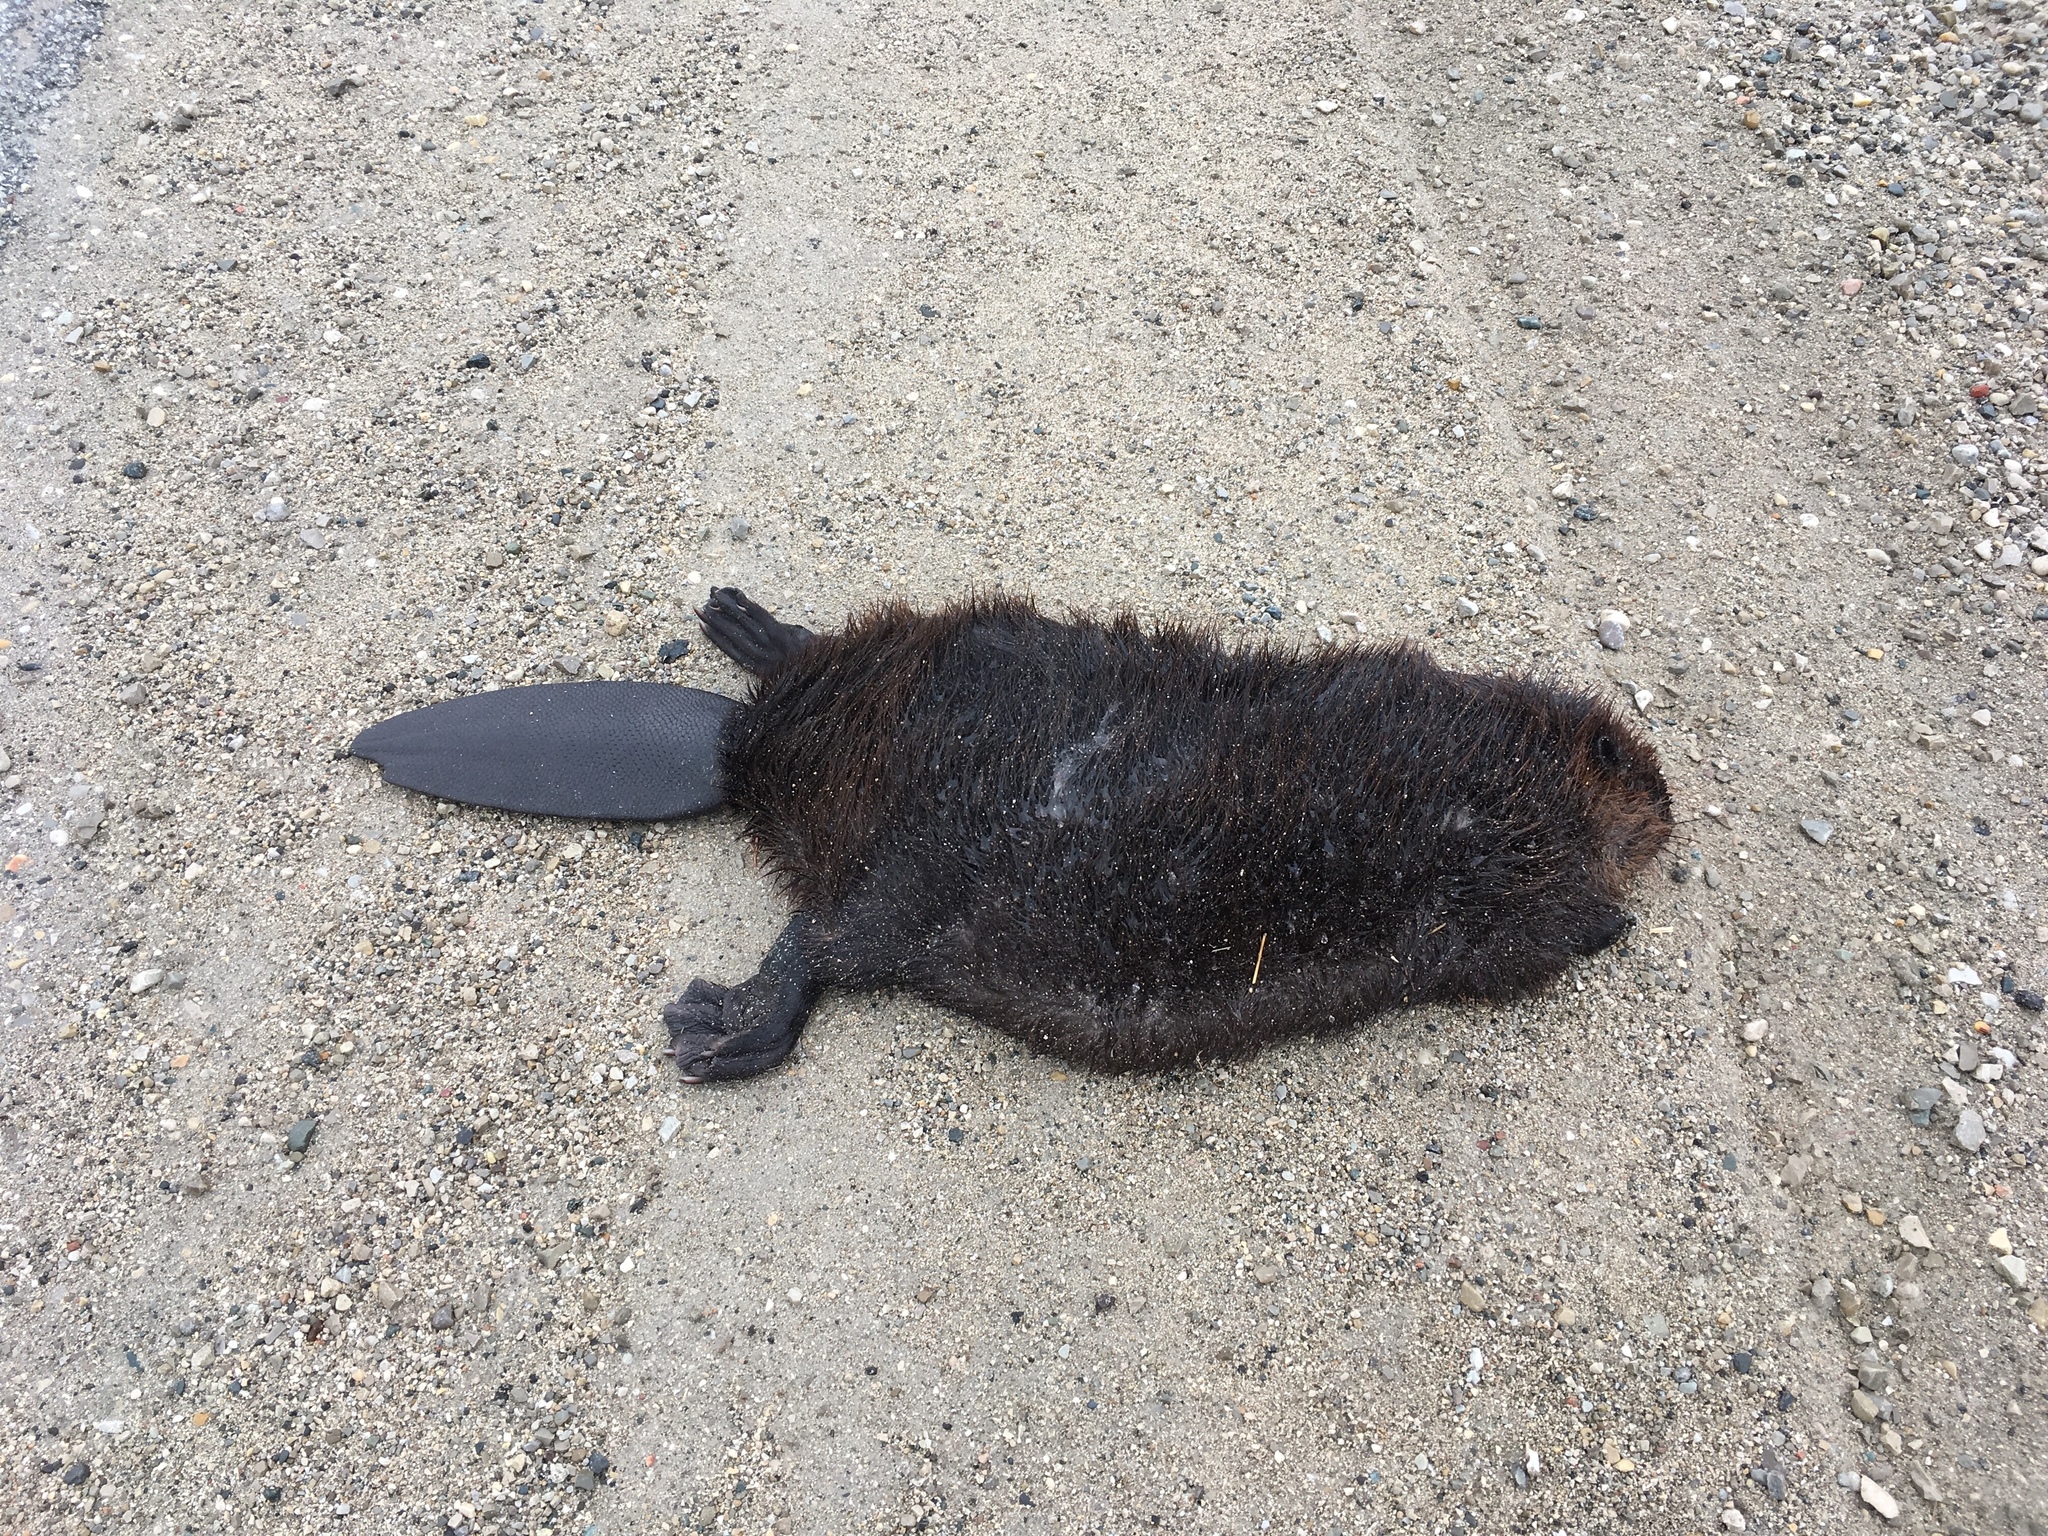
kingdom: Animalia
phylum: Chordata
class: Mammalia
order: Rodentia
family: Castoridae
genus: Castor
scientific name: Castor canadensis
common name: American beaver
